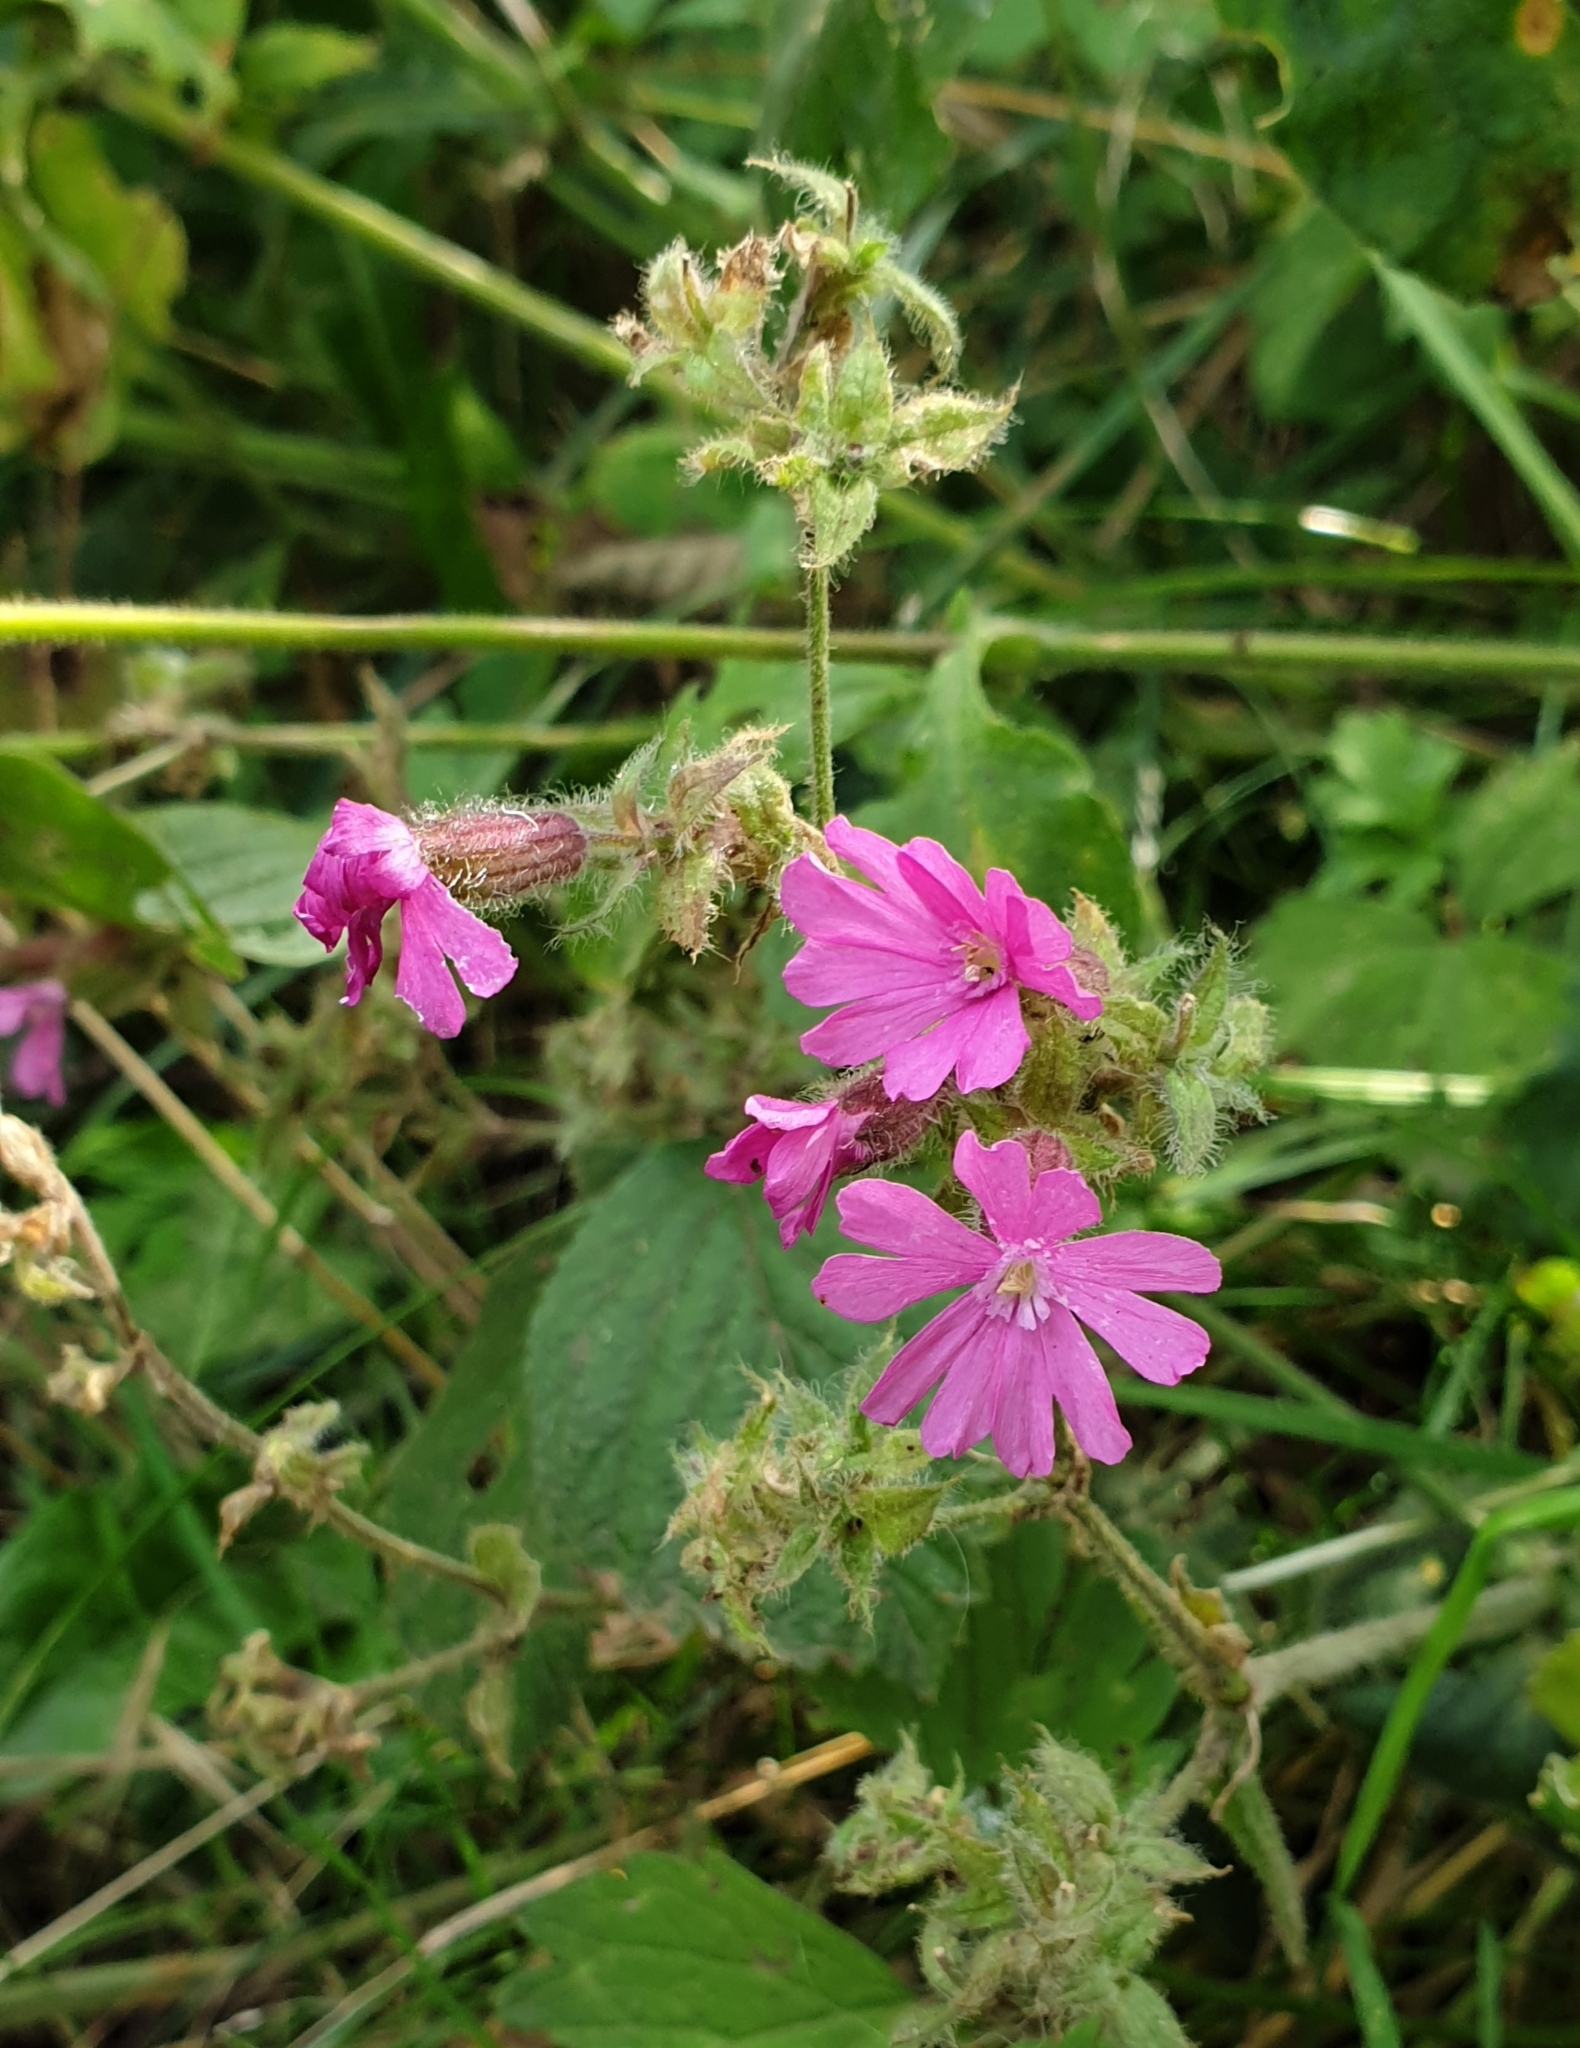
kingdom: Plantae
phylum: Tracheophyta
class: Magnoliopsida
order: Caryophyllales
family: Caryophyllaceae
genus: Silene
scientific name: Silene dioica
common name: Red campion
